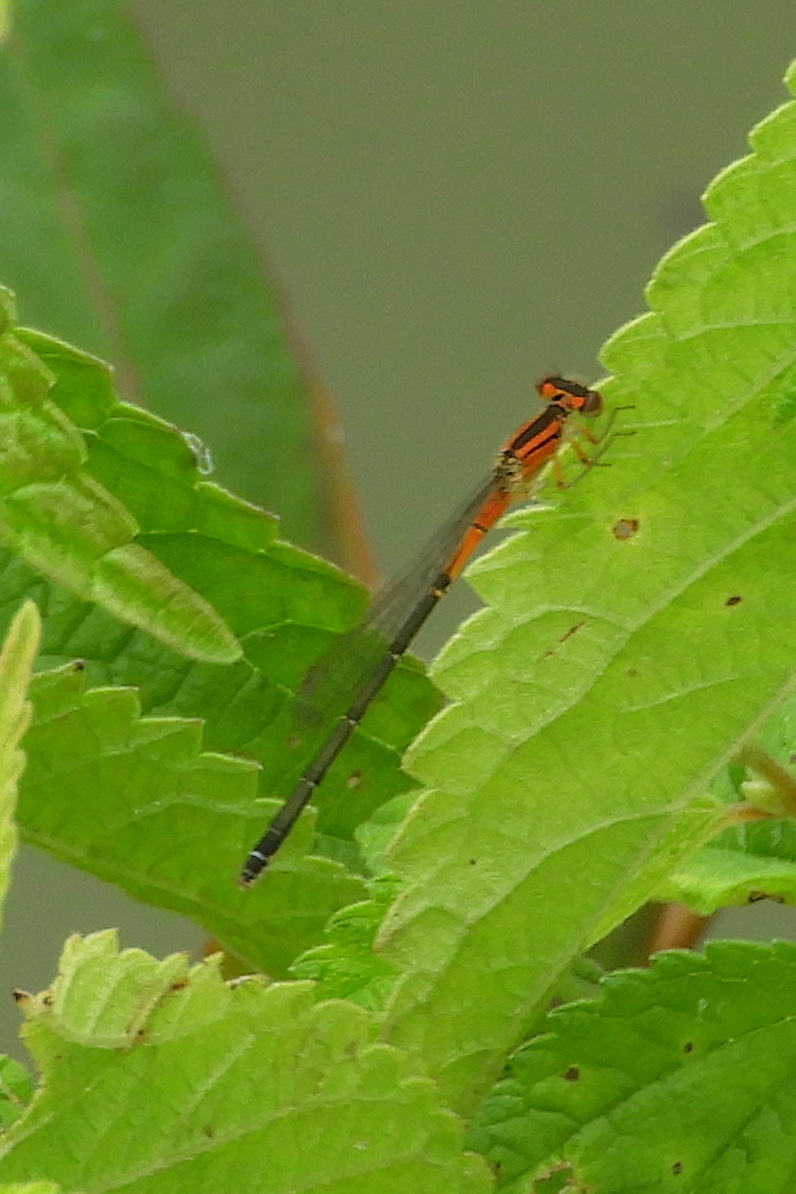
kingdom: Animalia
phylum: Arthropoda
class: Insecta
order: Odonata
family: Coenagrionidae
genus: Ischnura
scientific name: Ischnura verticalis
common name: Eastern forktail
